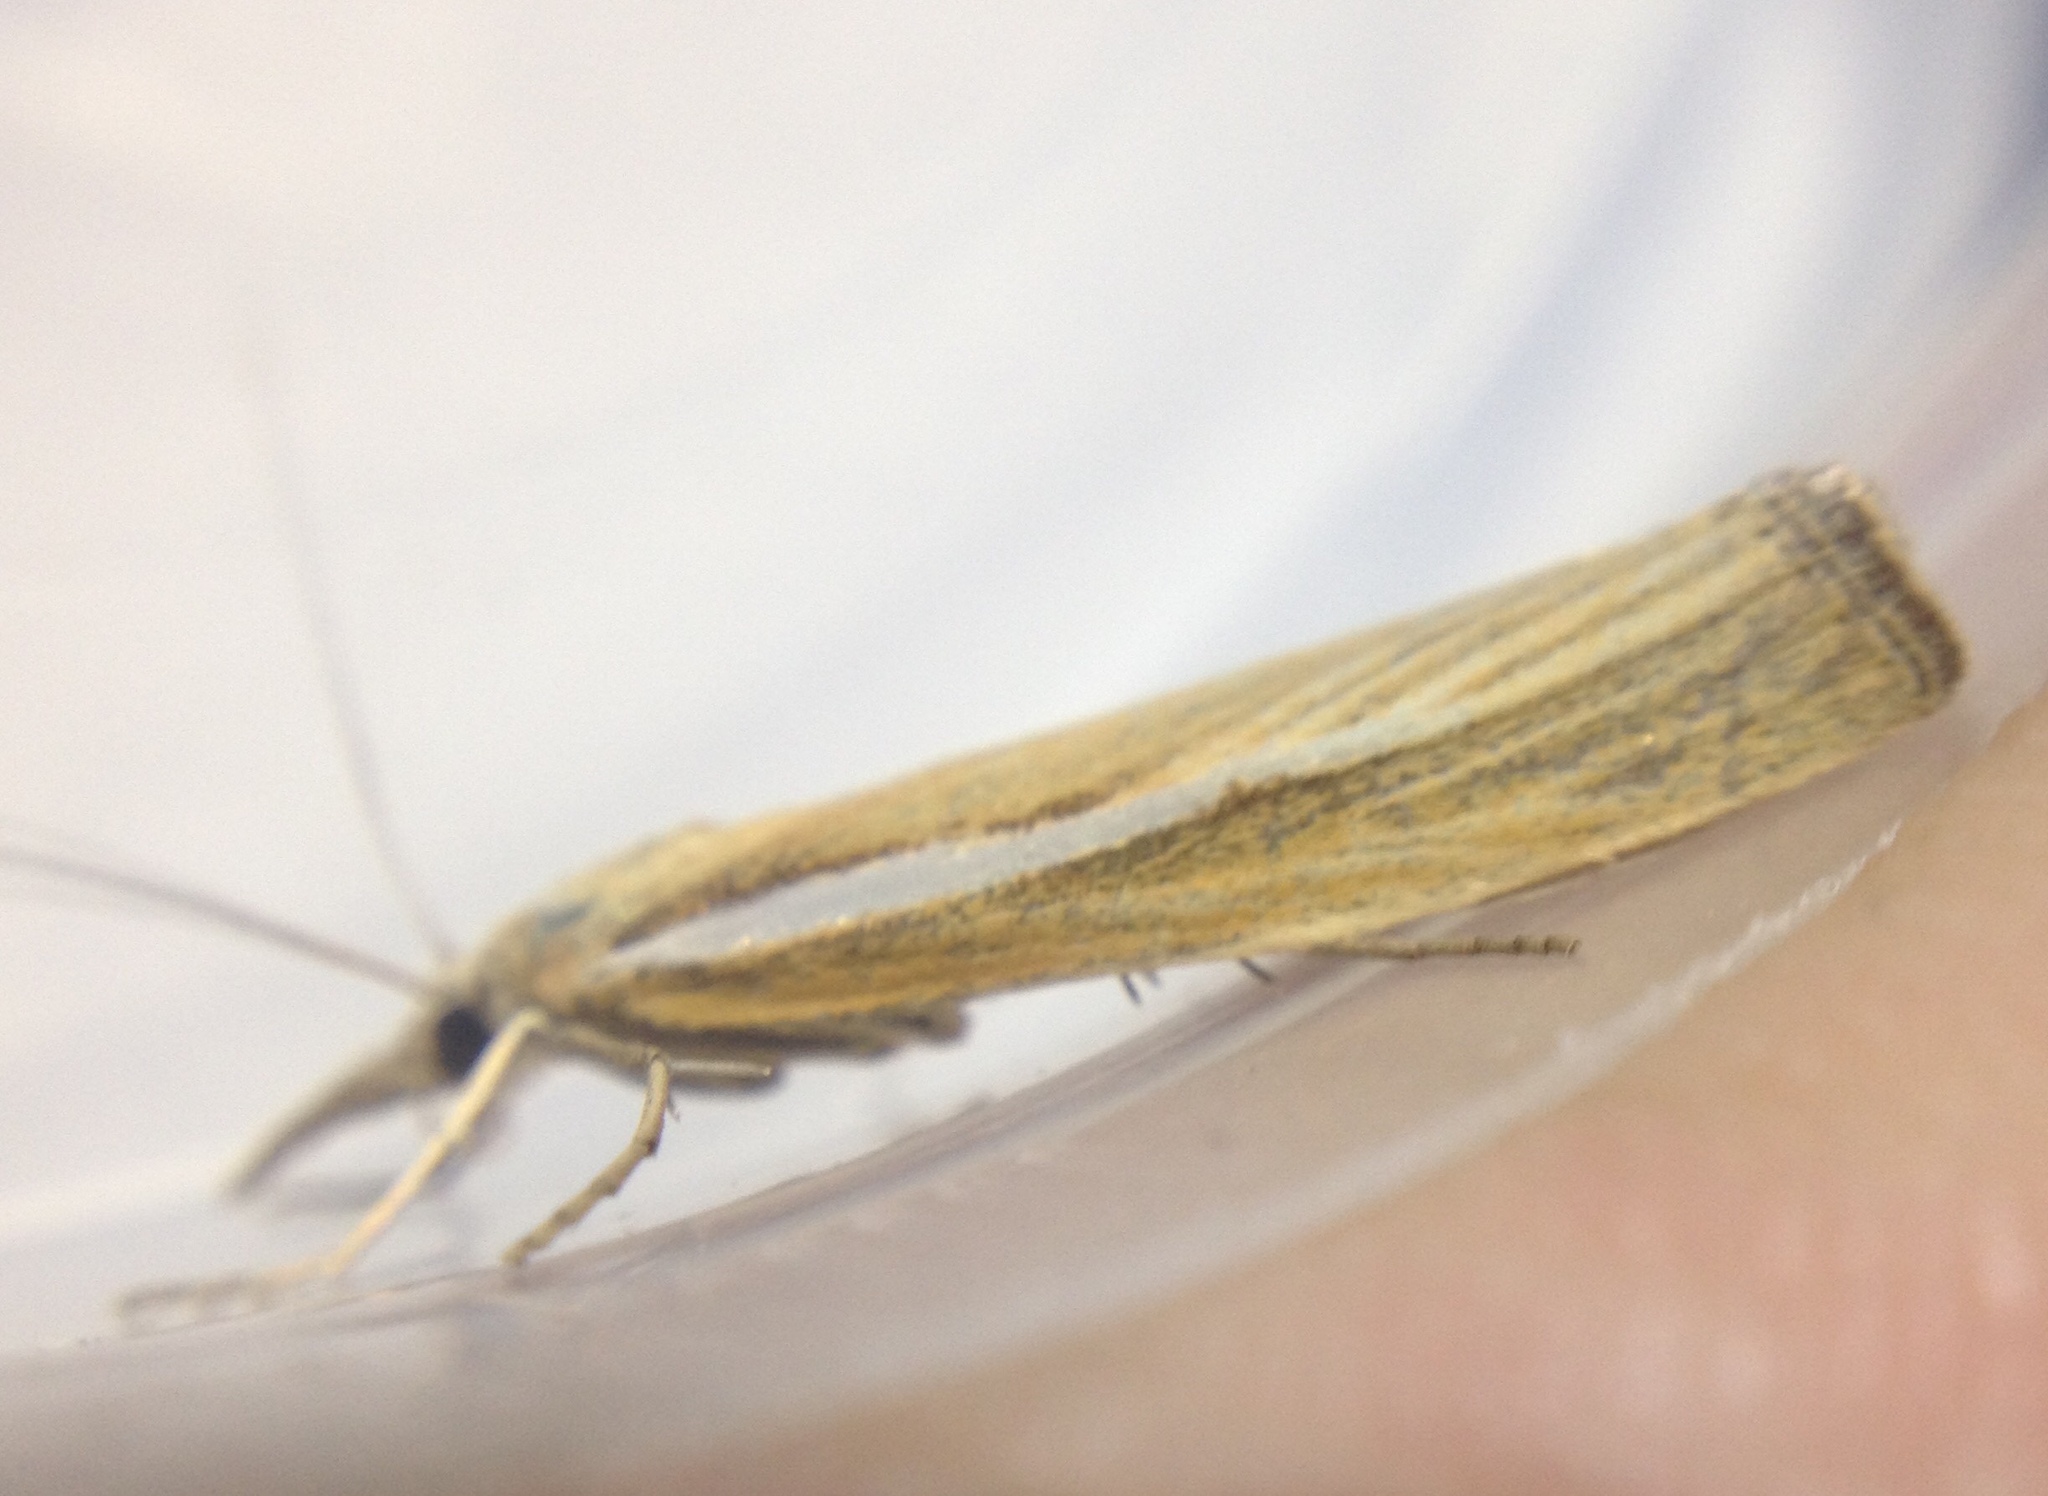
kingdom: Animalia
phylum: Arthropoda
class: Insecta
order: Lepidoptera
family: Crambidae
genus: Agriphila
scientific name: Agriphila tristellus
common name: Common grass-veneer
